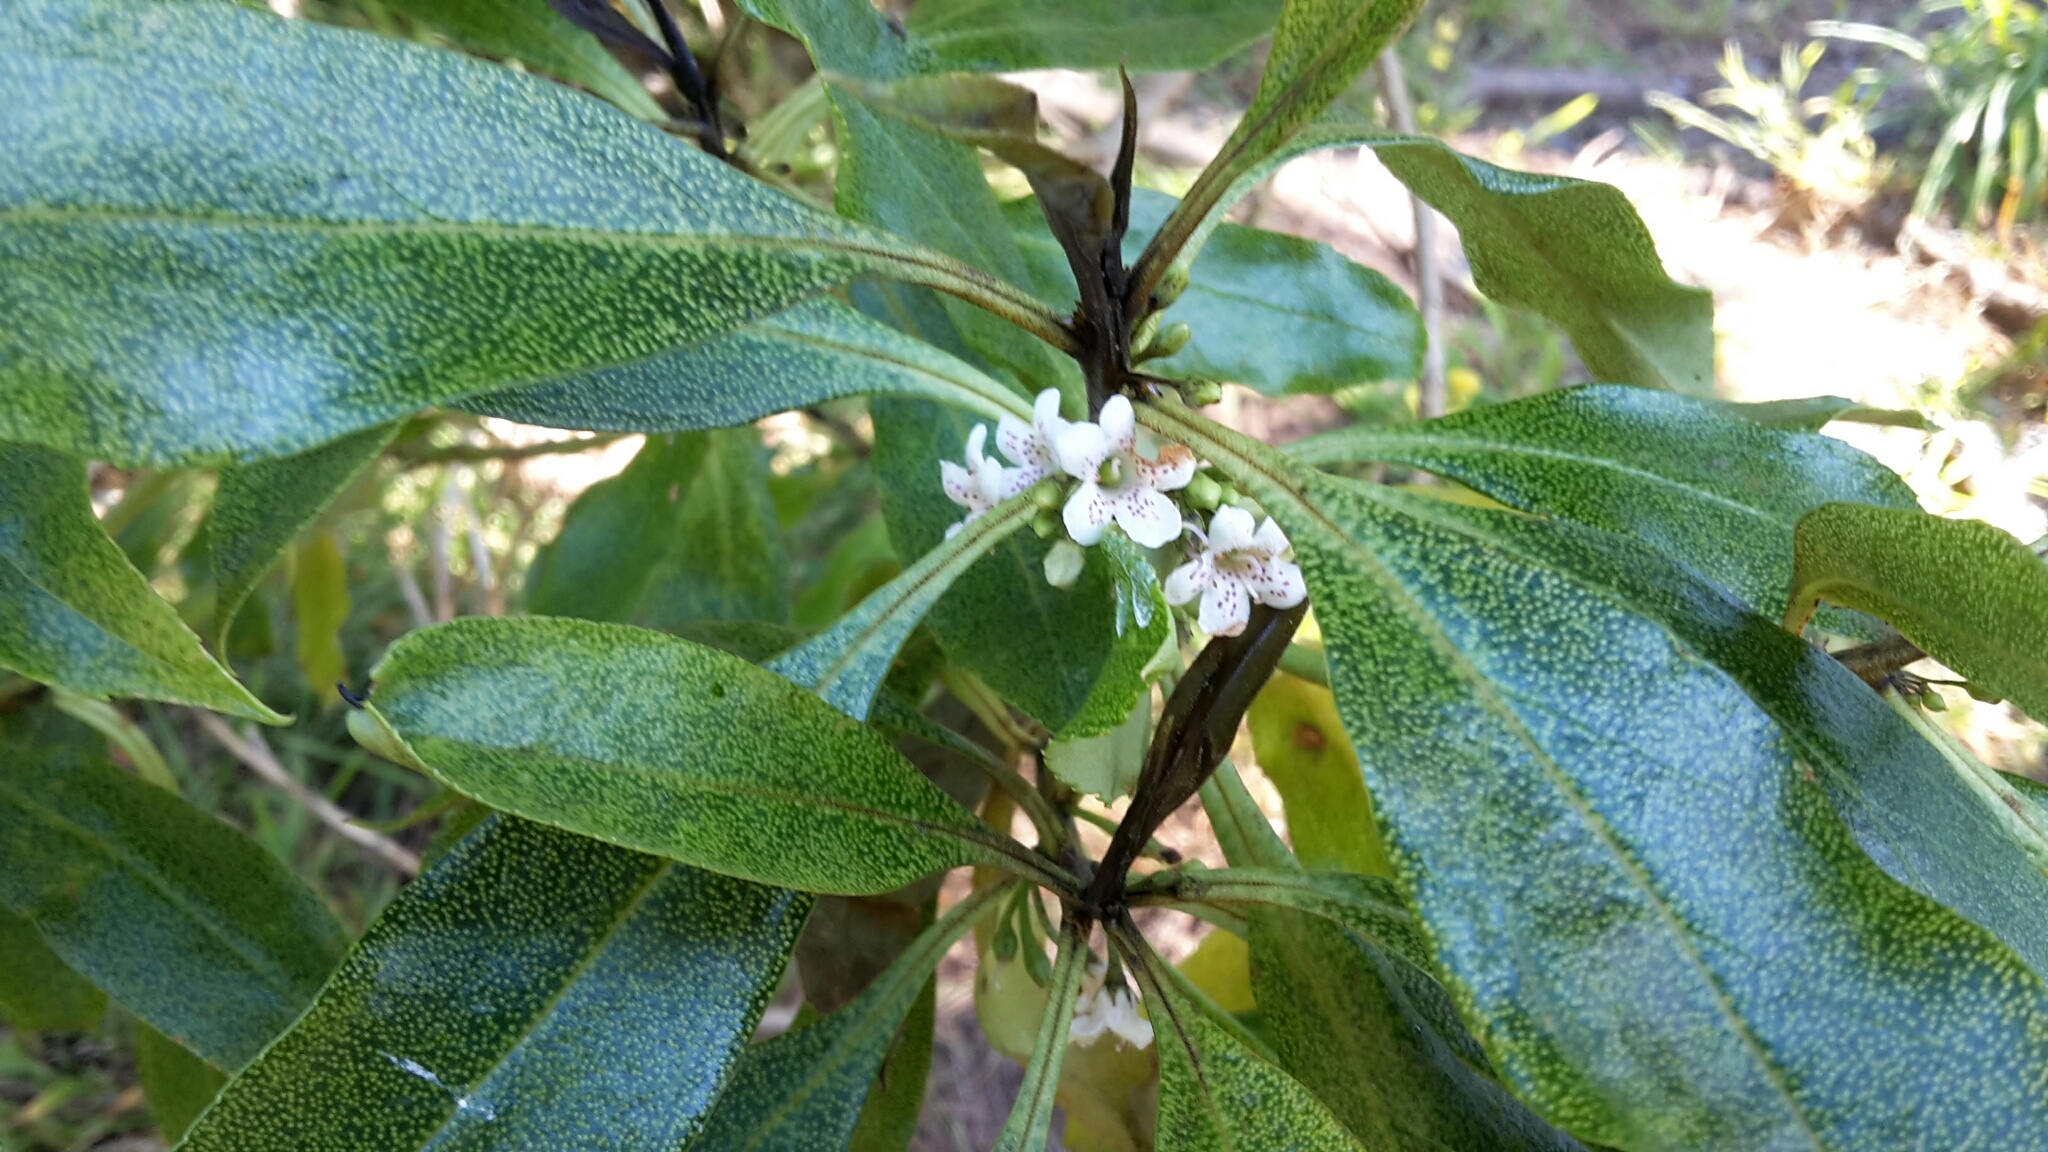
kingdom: Plantae
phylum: Tracheophyta
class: Magnoliopsida
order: Lamiales
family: Scrophulariaceae
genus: Myoporum
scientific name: Myoporum laetum
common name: Ngaio tree
